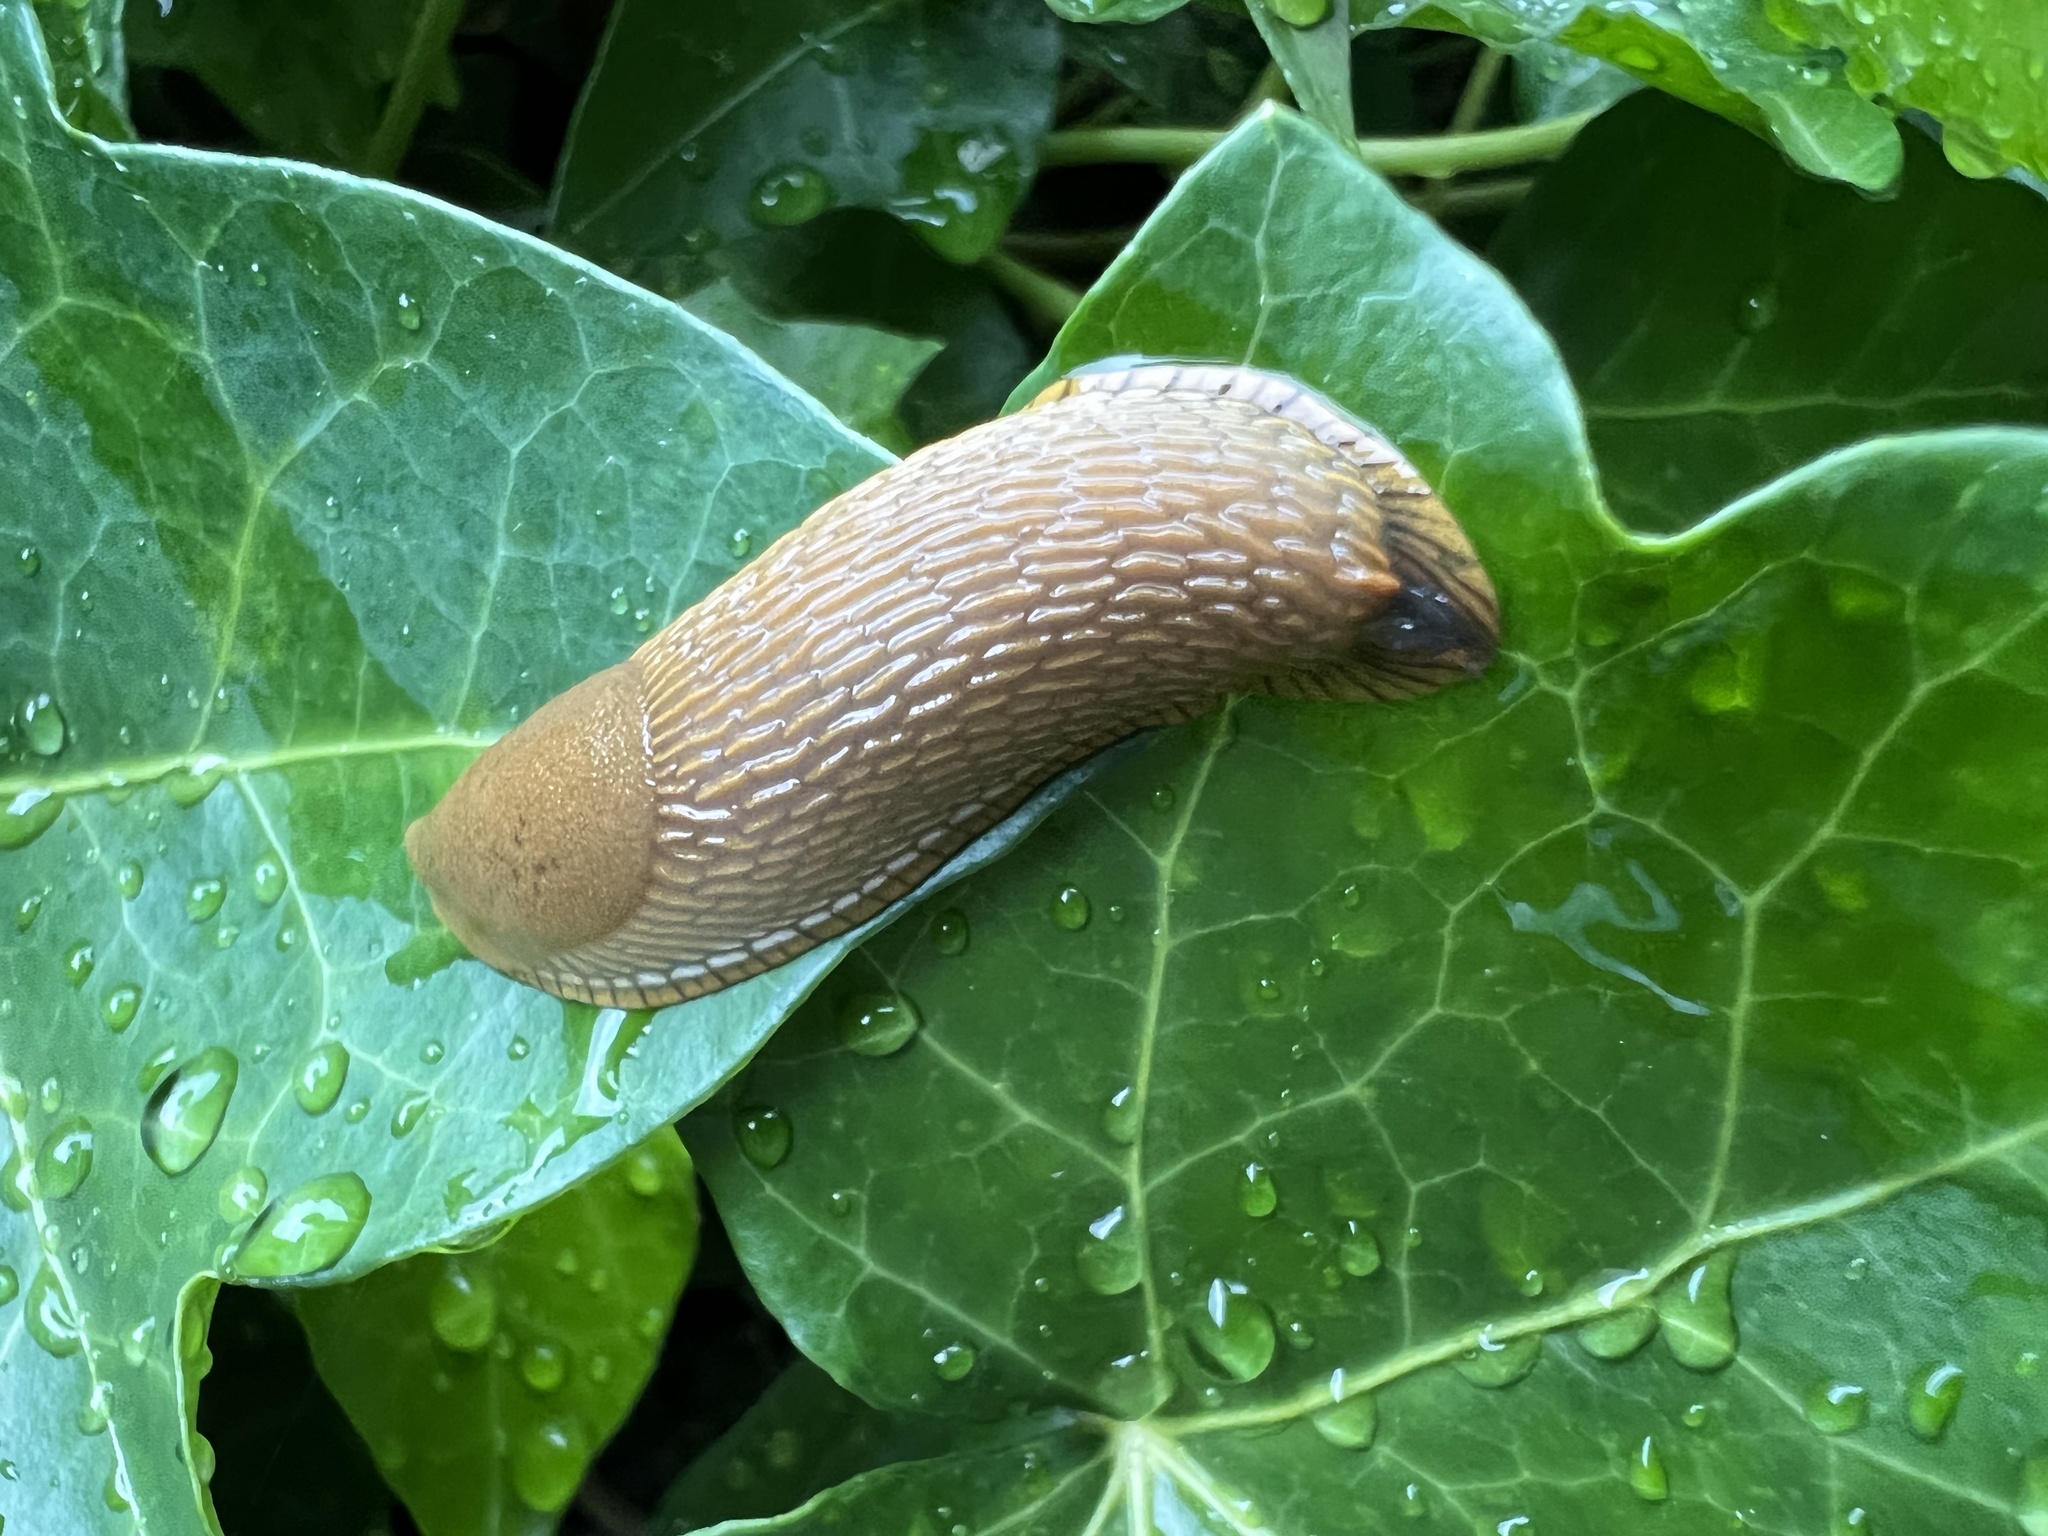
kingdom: Animalia
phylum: Mollusca
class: Gastropoda
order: Stylommatophora
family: Arionidae
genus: Arion
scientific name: Arion
